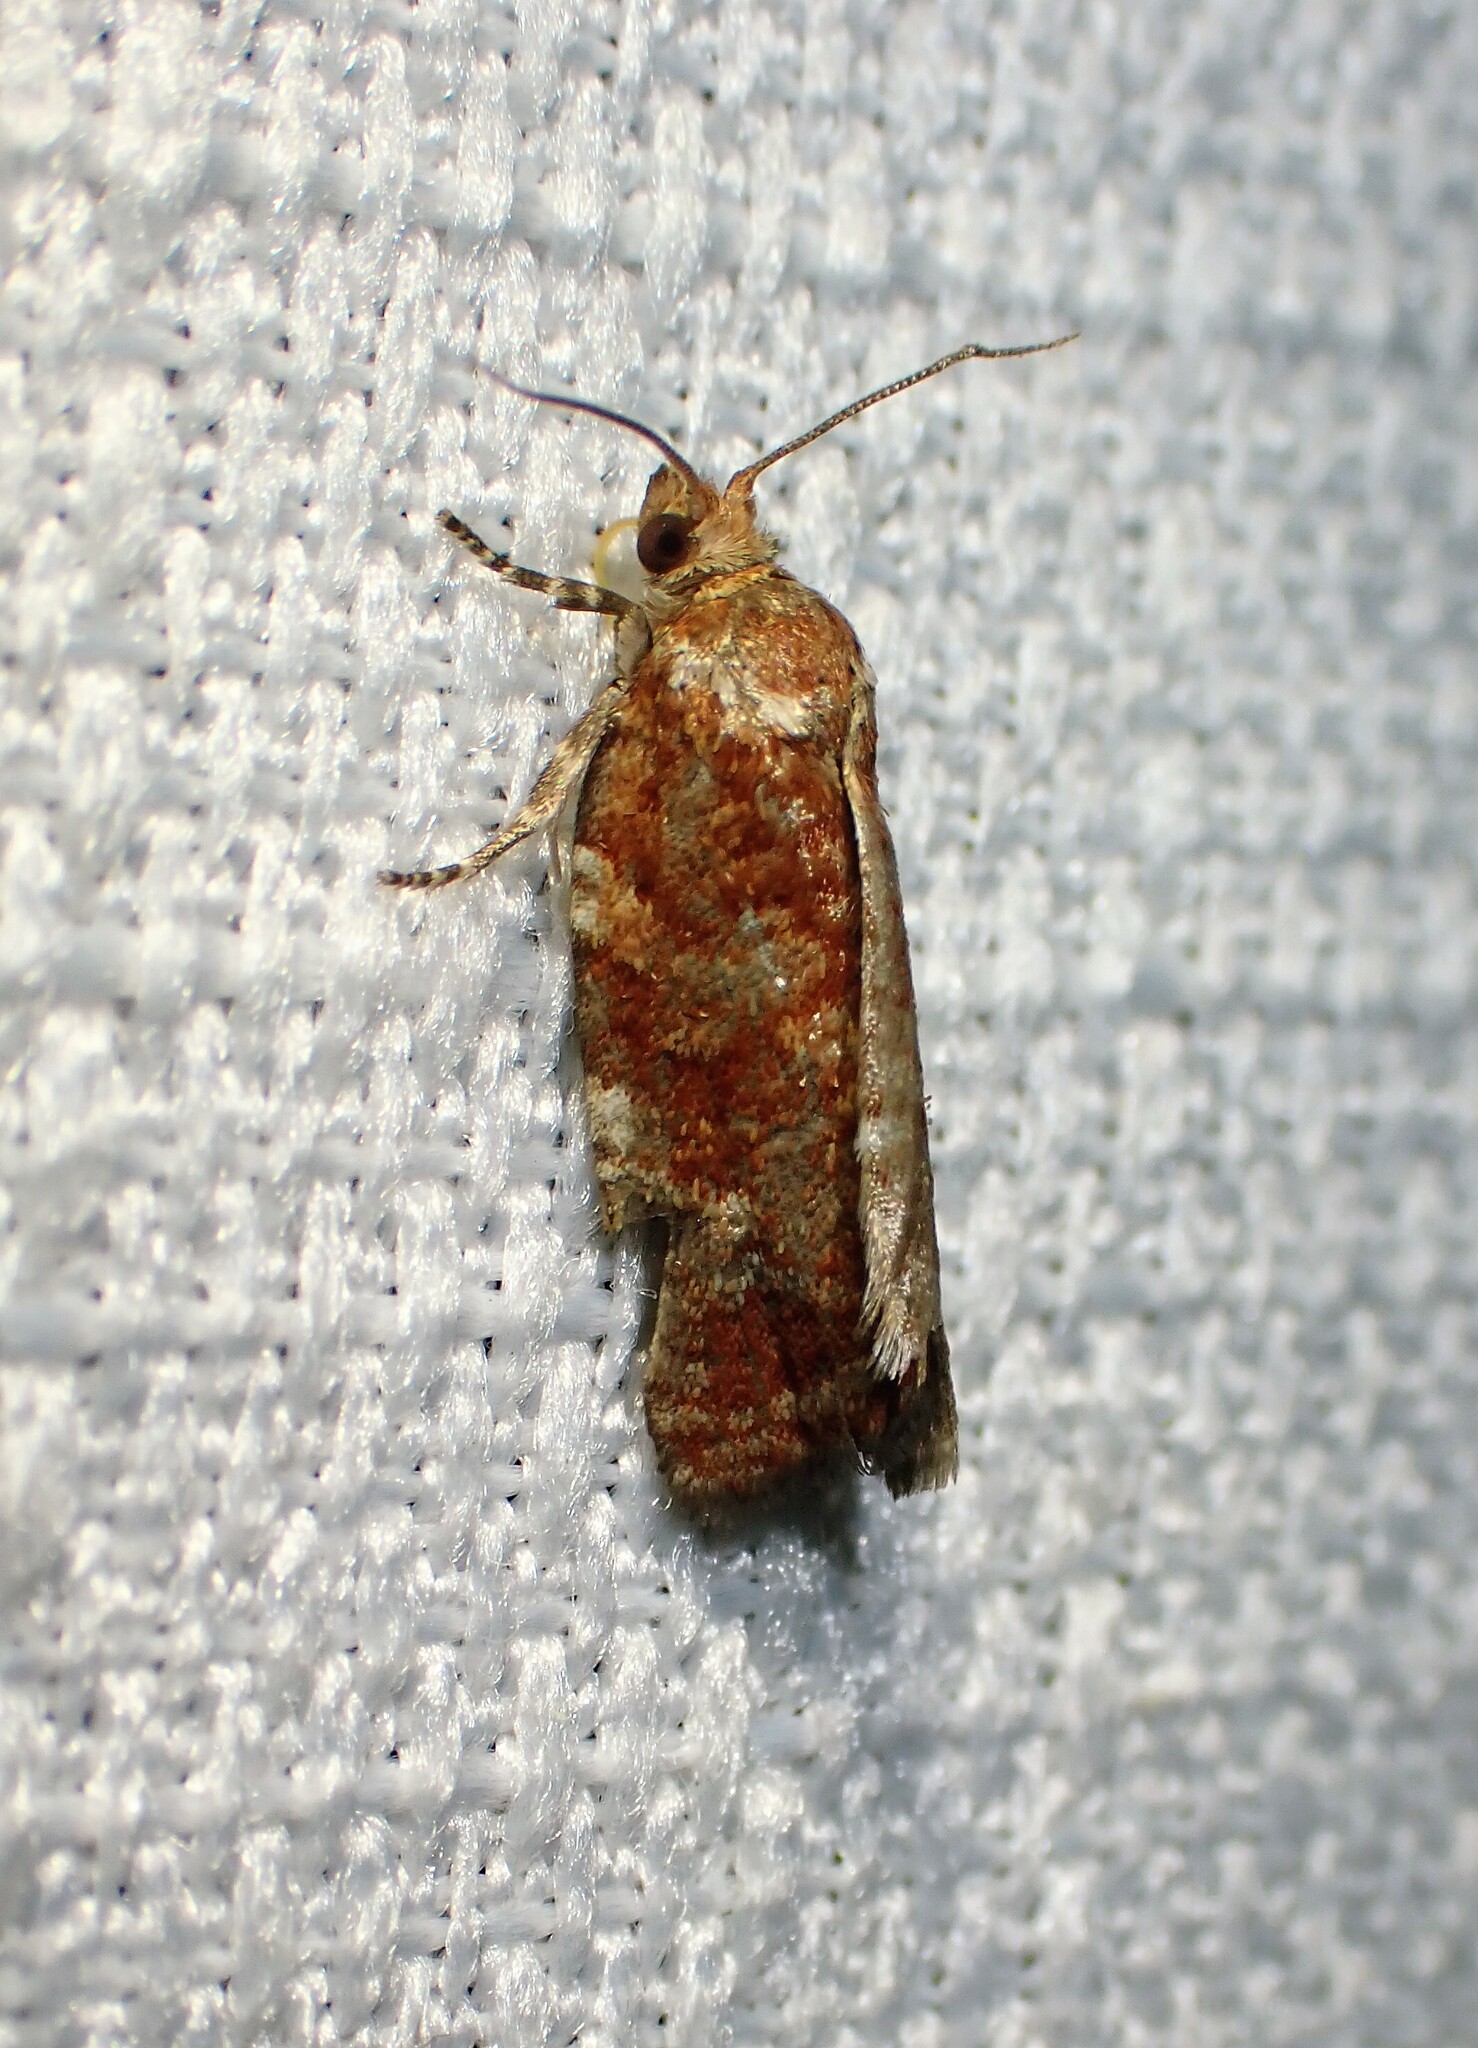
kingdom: Animalia
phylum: Arthropoda
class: Insecta
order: Lepidoptera
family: Tortricidae
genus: Choristoneura
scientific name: Choristoneura pinus
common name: Jack pine budworm
